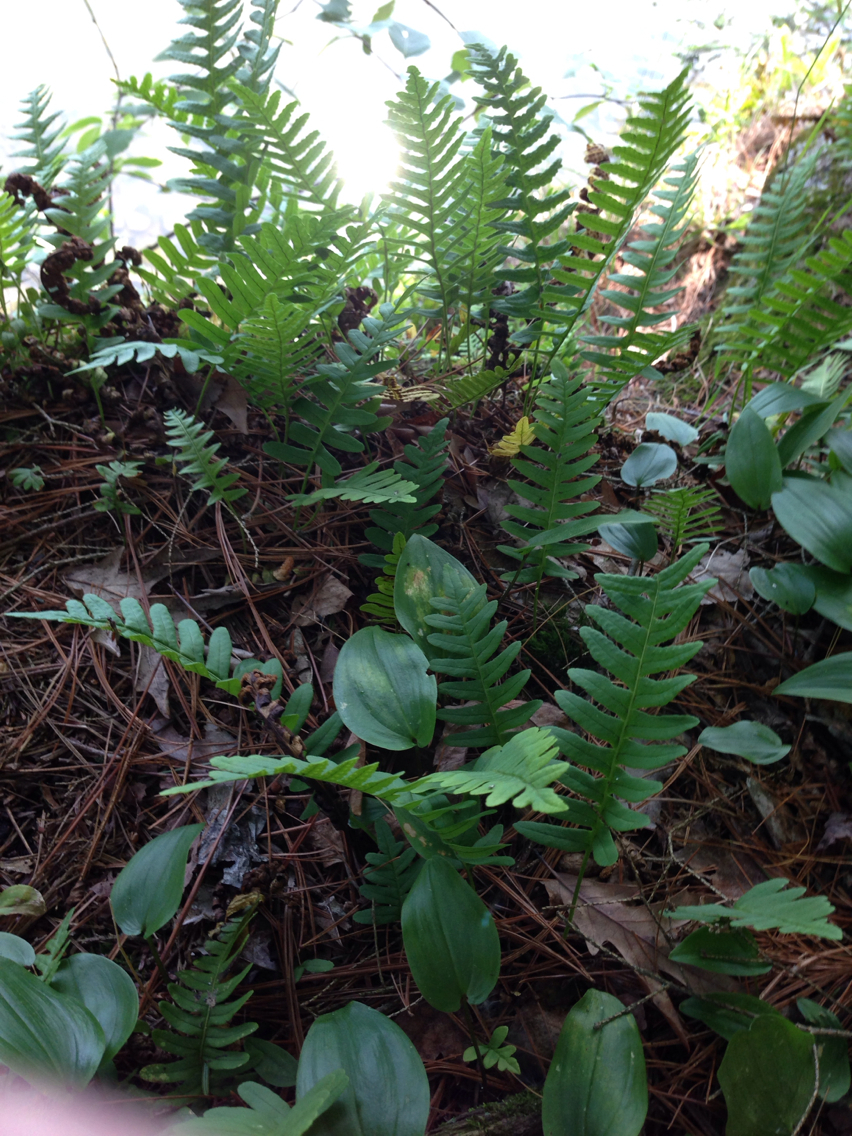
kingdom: Plantae
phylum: Tracheophyta
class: Polypodiopsida
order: Polypodiales
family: Polypodiaceae
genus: Polypodium
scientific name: Polypodium virginianum
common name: American wall fern
